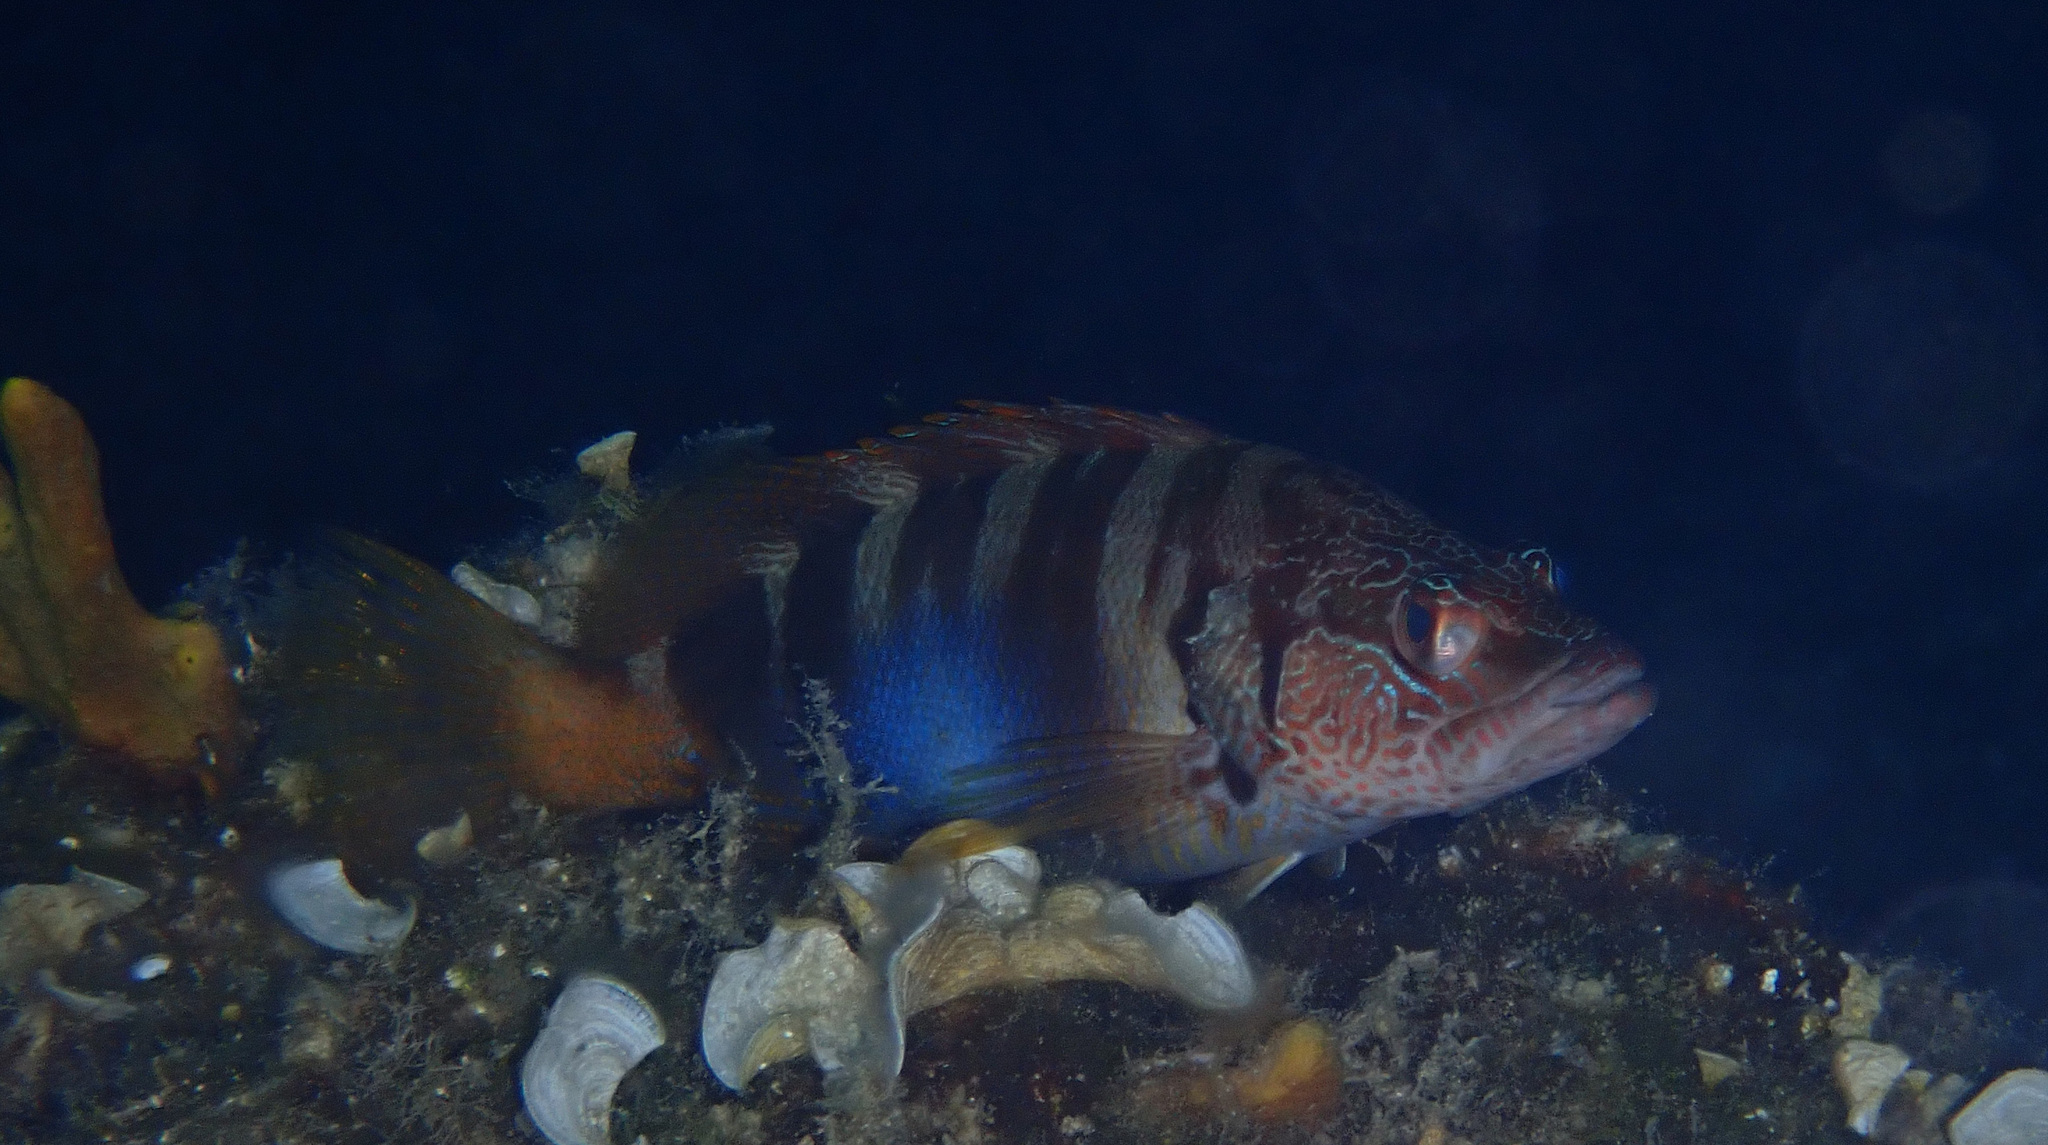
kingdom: Animalia
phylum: Chordata
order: Perciformes
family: Serranidae
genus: Serranus
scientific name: Serranus scriba
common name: Painted comber
